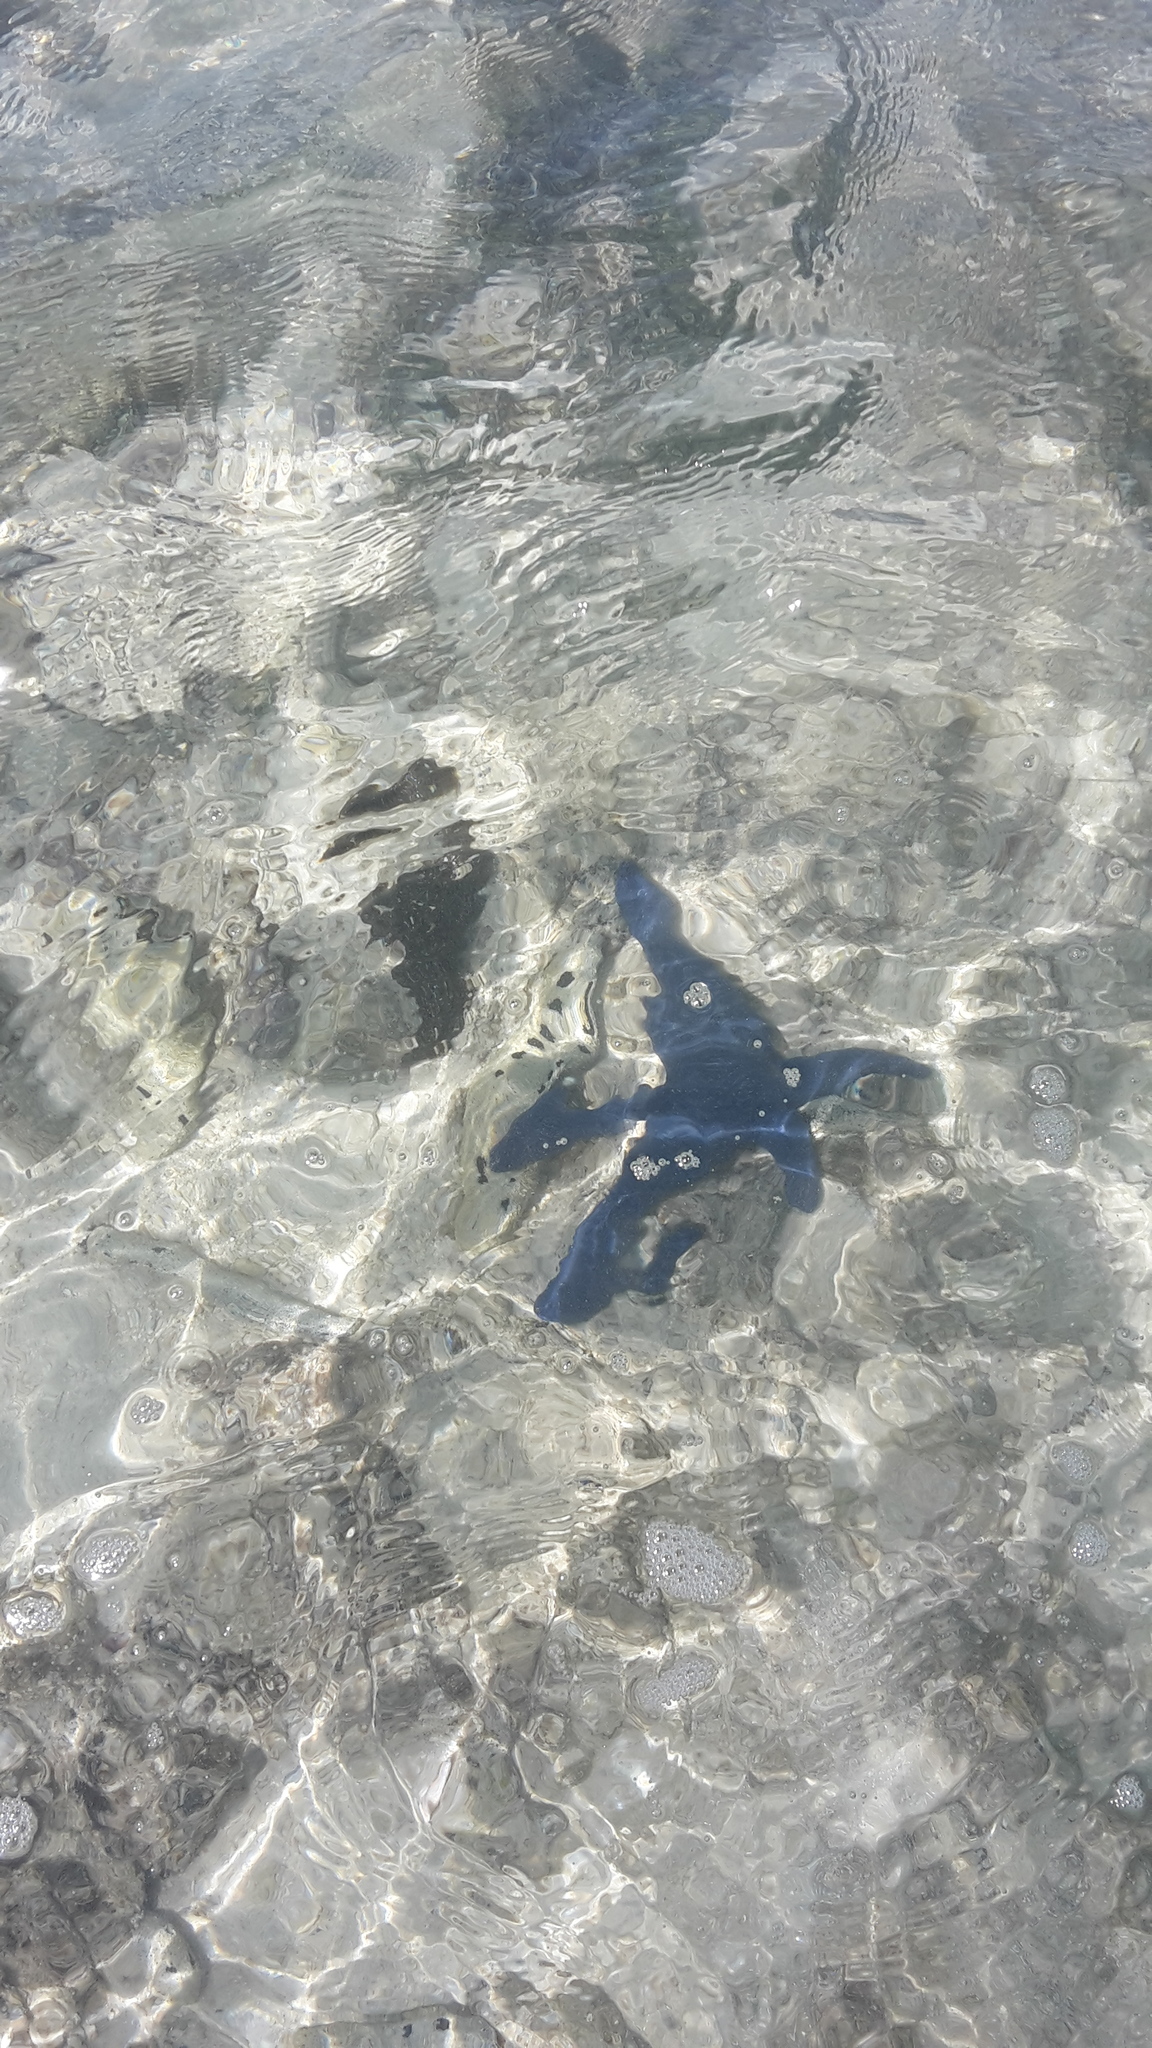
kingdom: Animalia
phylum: Echinodermata
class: Asteroidea
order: Valvatida
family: Ophidiasteridae
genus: Linckia
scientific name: Linckia laevigata
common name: Azure sea star
